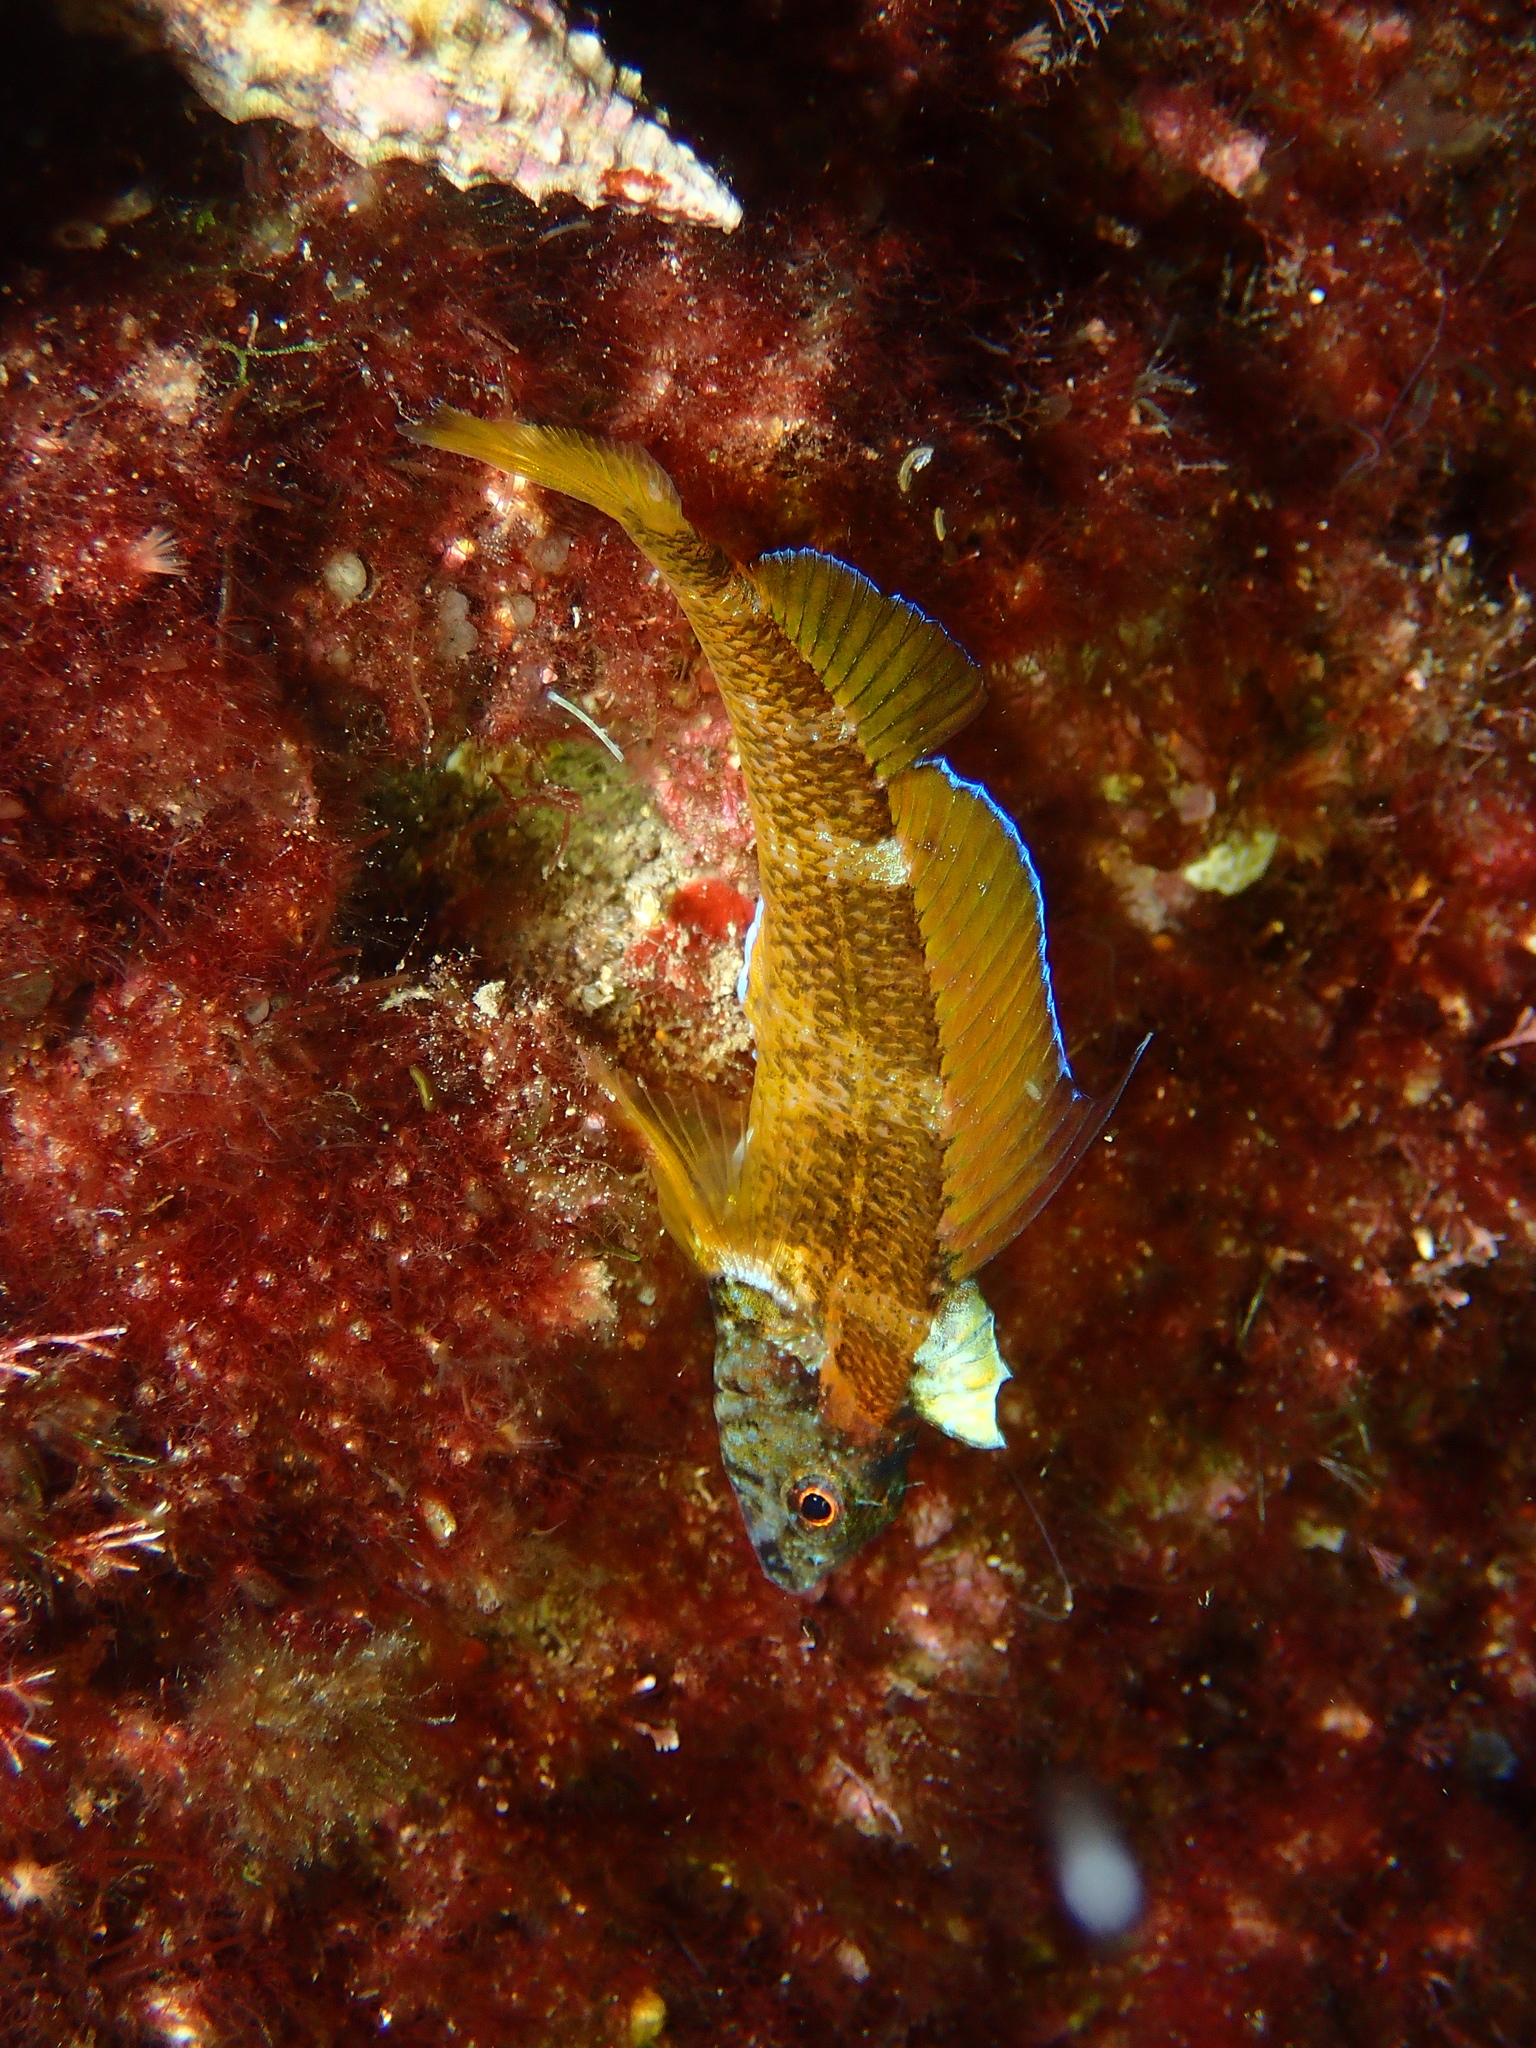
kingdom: Animalia
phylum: Chordata
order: Perciformes
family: Tripterygiidae
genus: Tripterygion
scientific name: Tripterygion delaisi
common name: Black-face blenny
